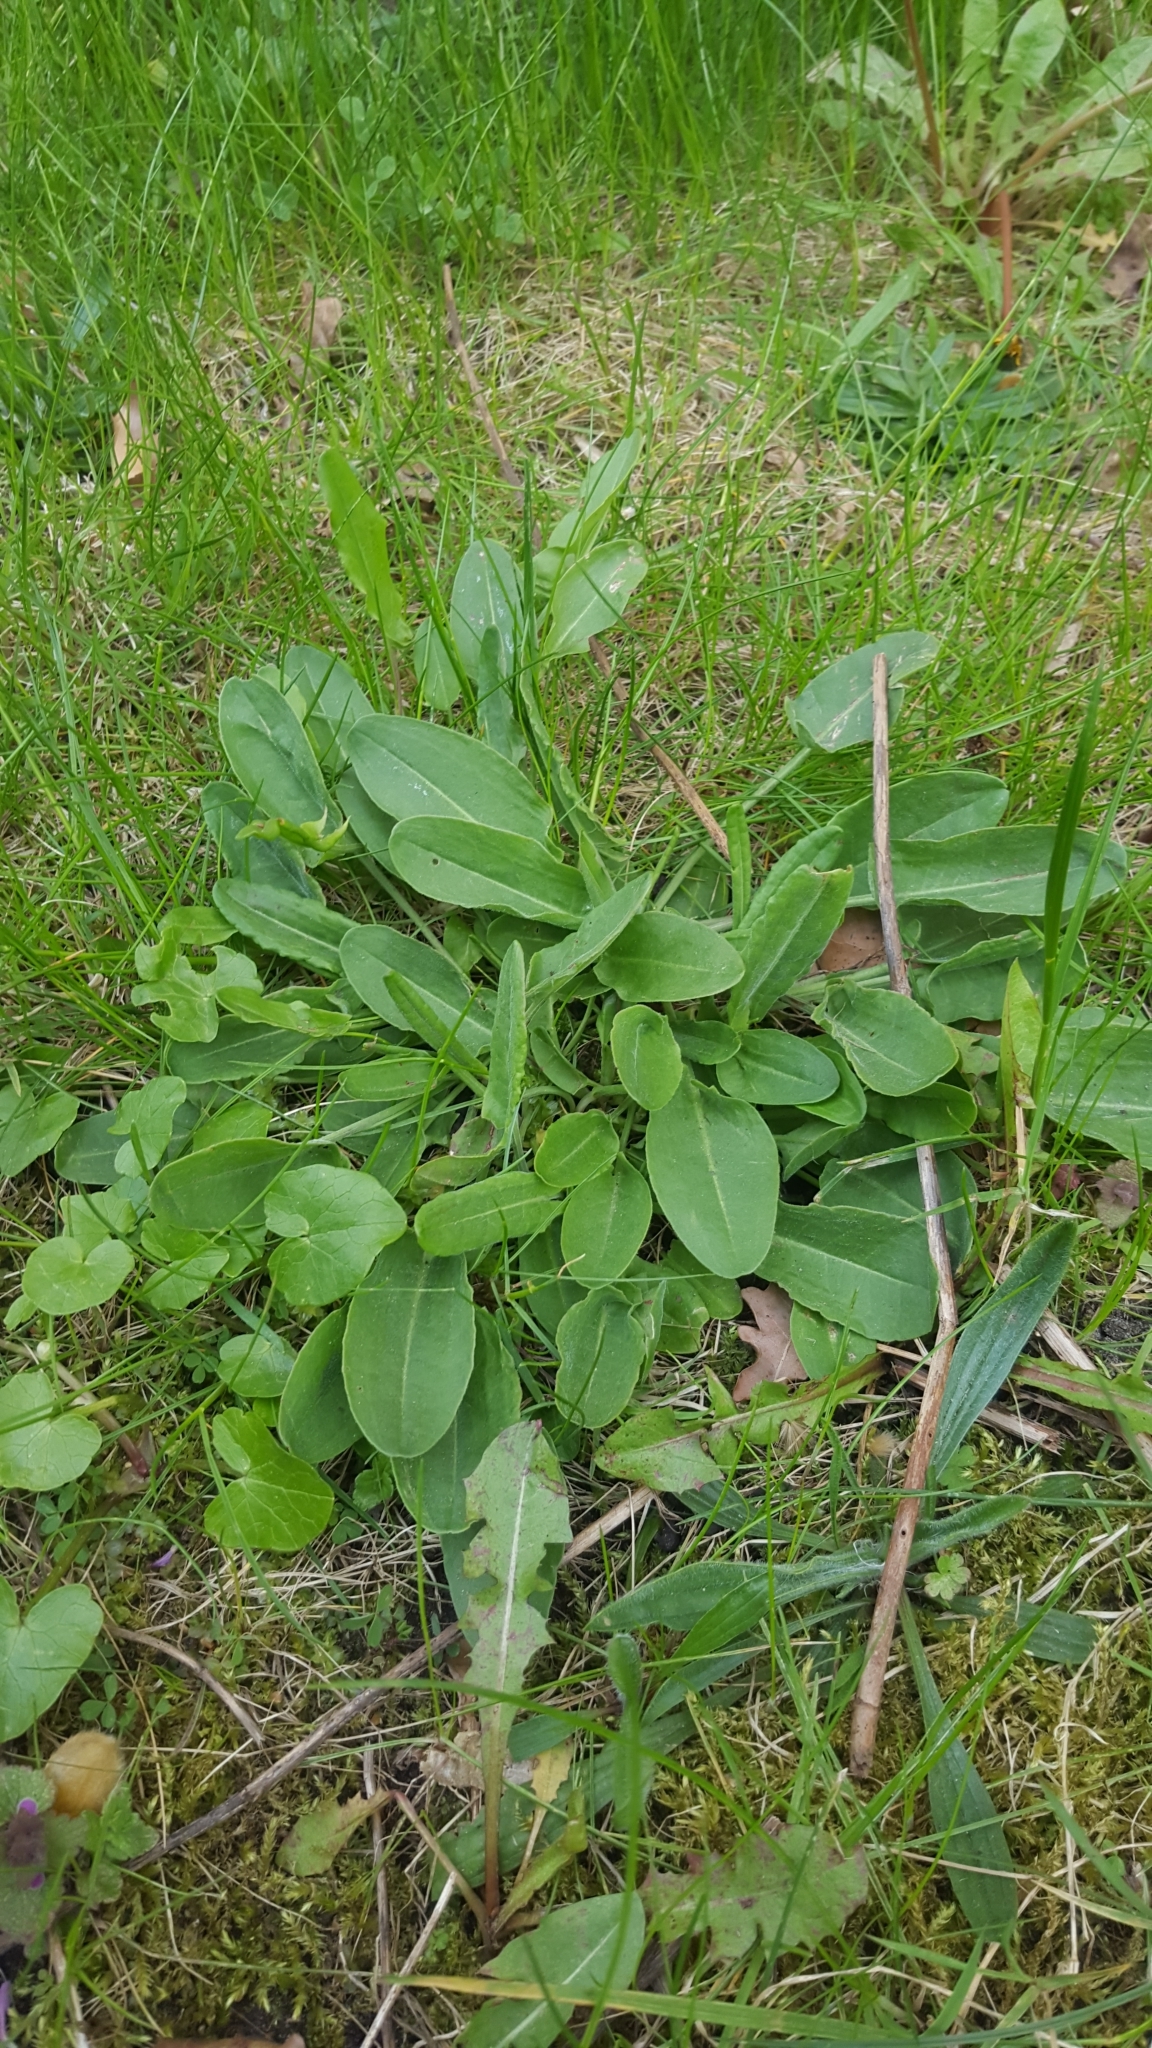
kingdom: Plantae
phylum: Tracheophyta
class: Magnoliopsida
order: Caryophyllales
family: Polygonaceae
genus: Rumex
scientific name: Rumex acetosa
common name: Garden sorrel
